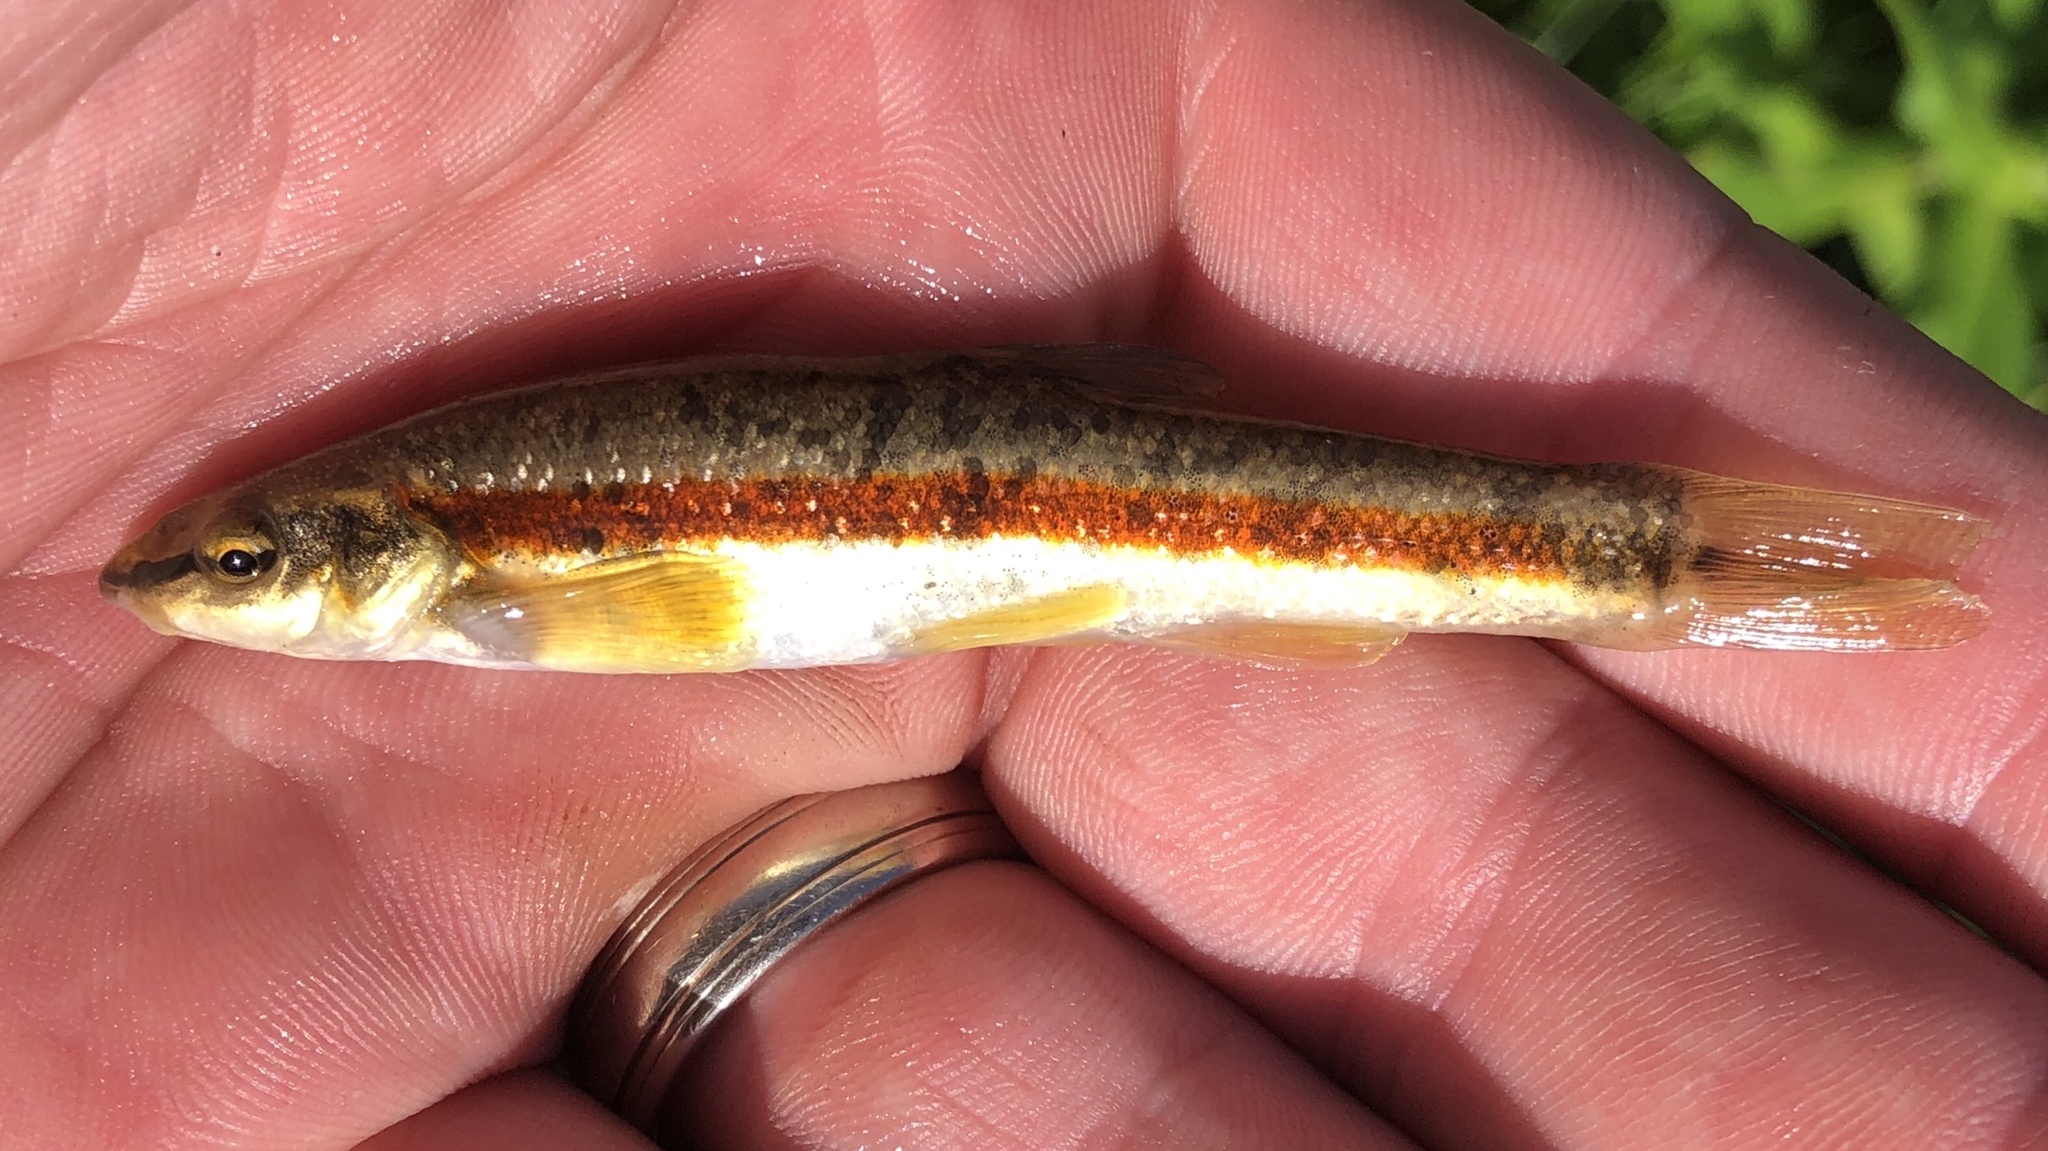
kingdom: Animalia
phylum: Chordata
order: Cypriniformes
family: Cyprinidae
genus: Rhinichthys
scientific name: Rhinichthys obtusus
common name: Western blacknose dace
